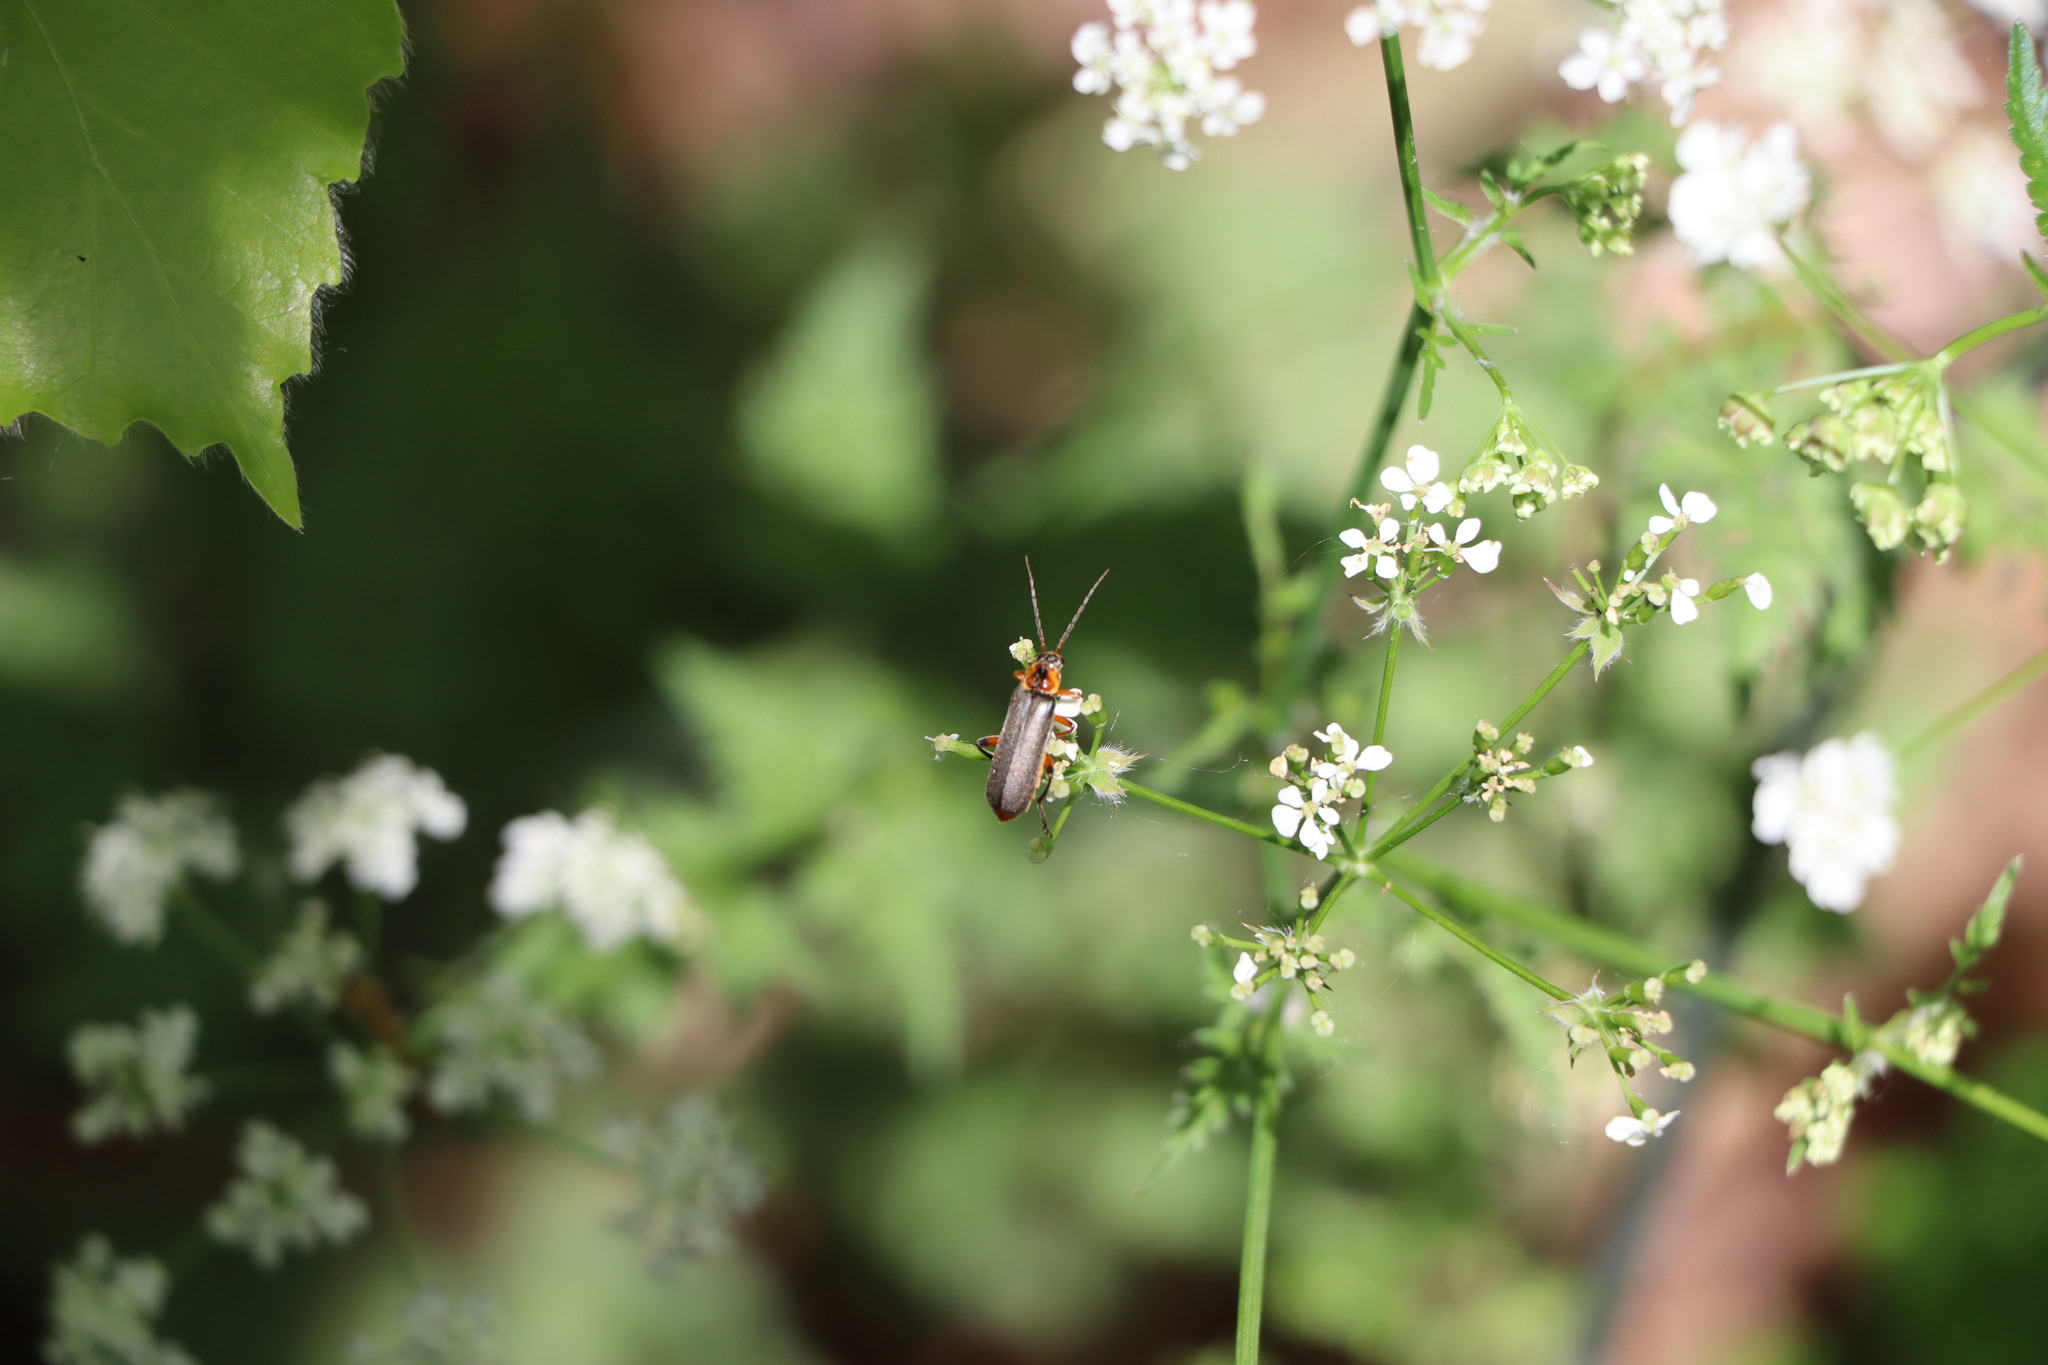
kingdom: Animalia
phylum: Arthropoda
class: Insecta
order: Coleoptera
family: Cantharidae
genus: Cantharis
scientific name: Cantharis nigricans
